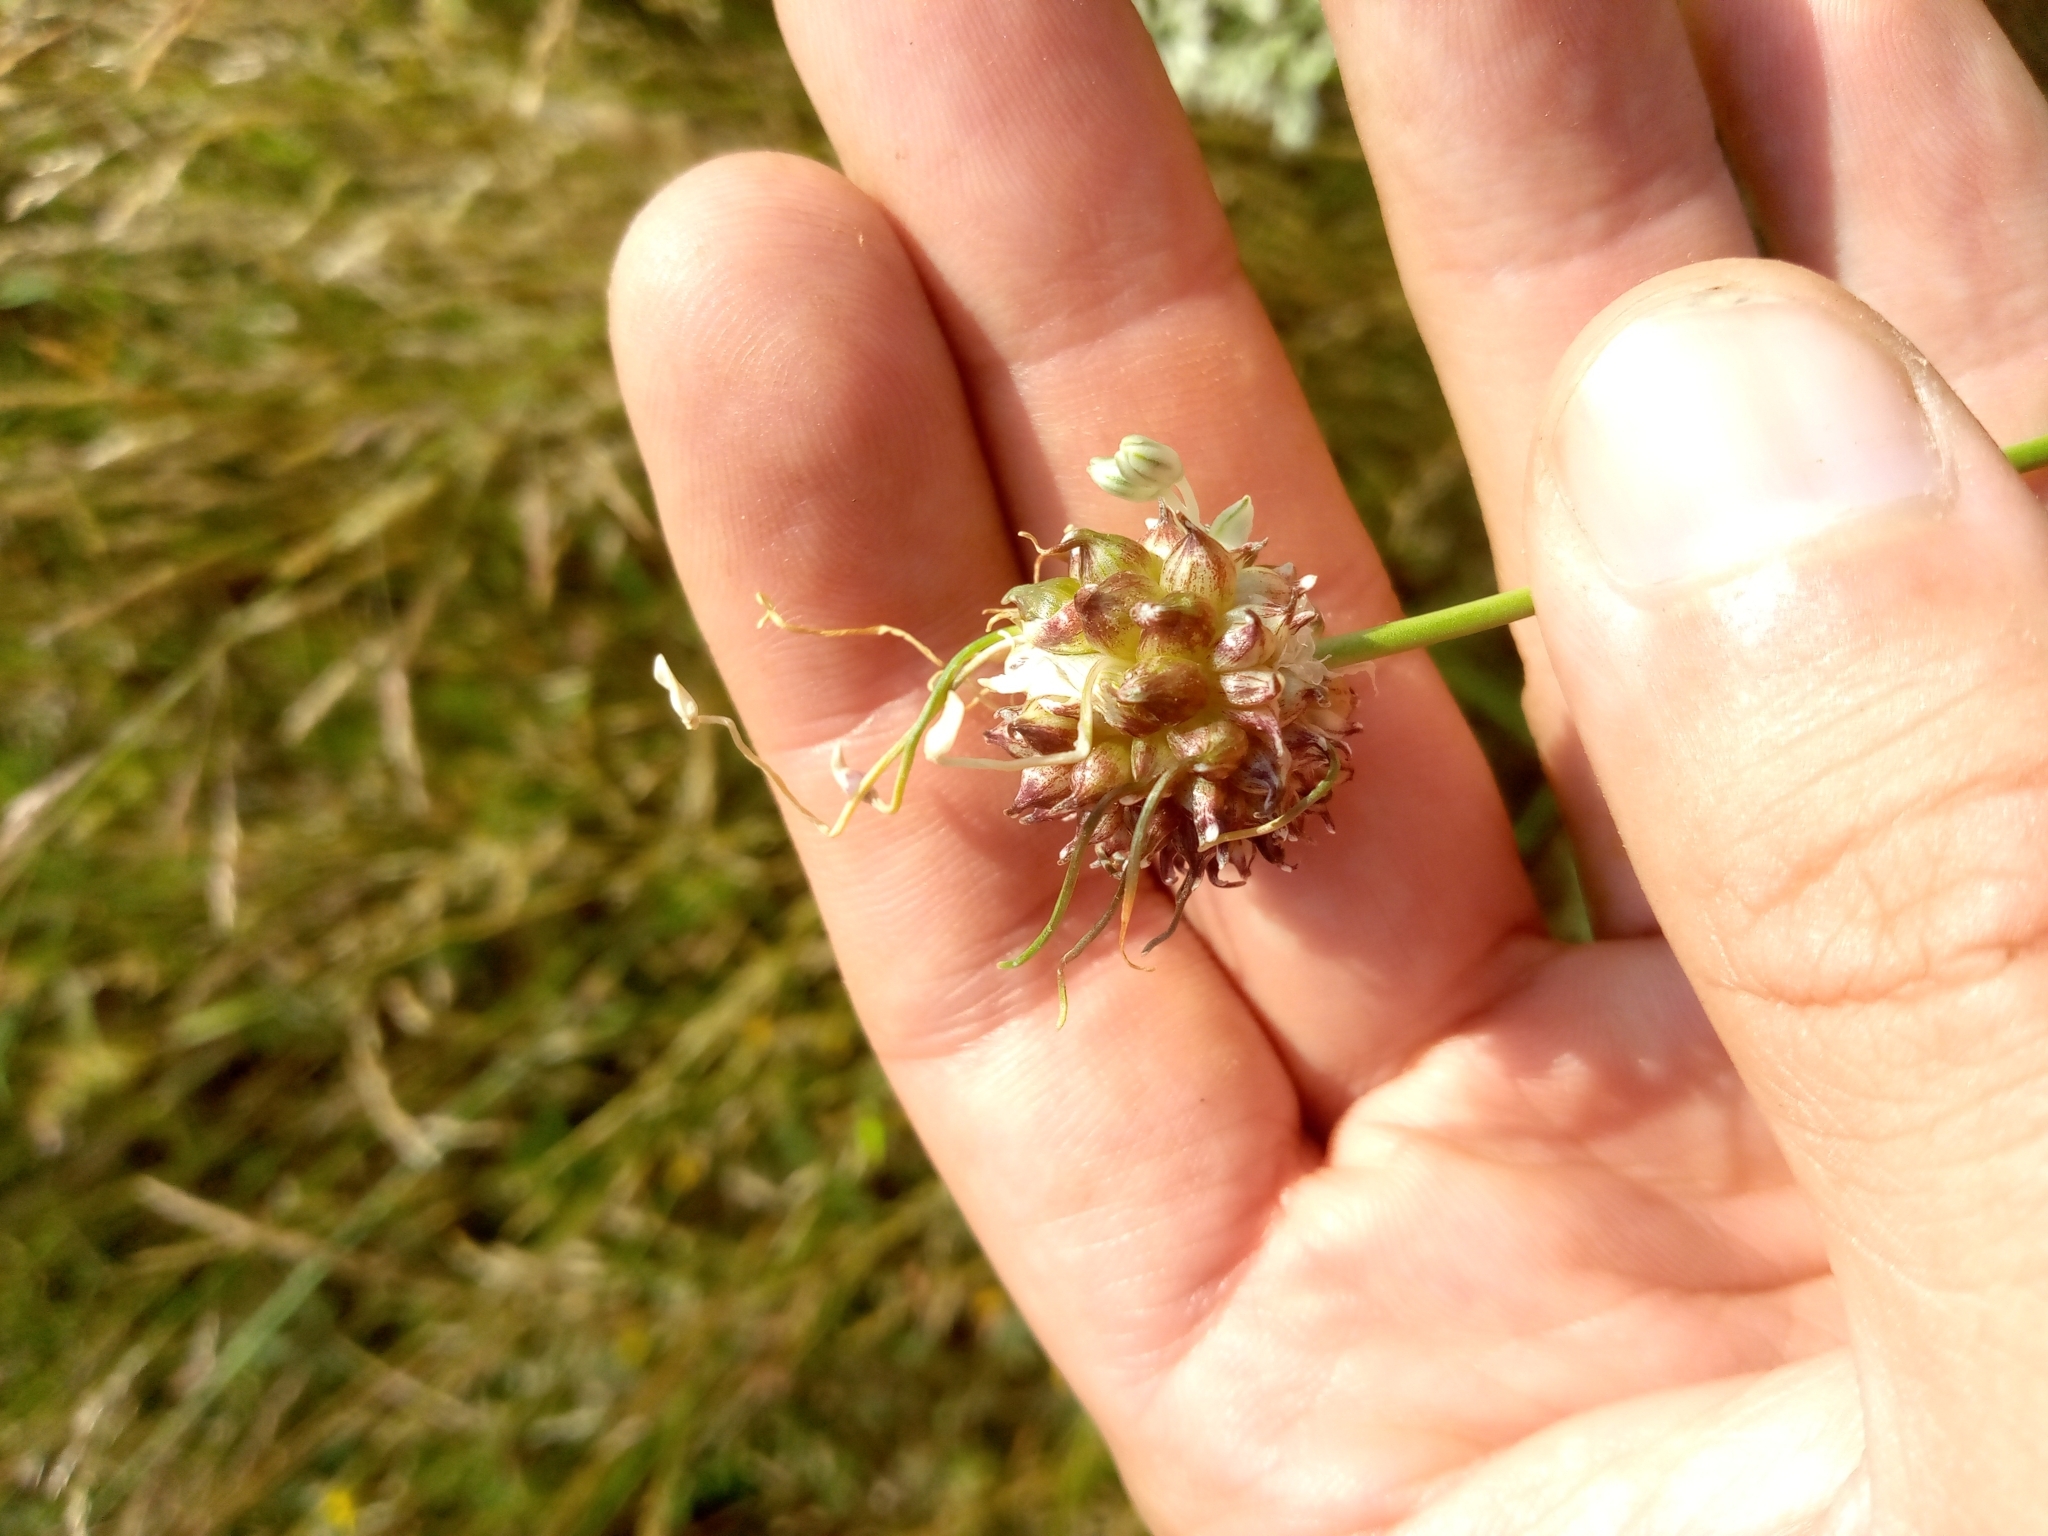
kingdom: Plantae
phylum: Tracheophyta
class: Liliopsida
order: Asparagales
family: Amaryllidaceae
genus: Allium
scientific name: Allium vineale
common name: Crow garlic
